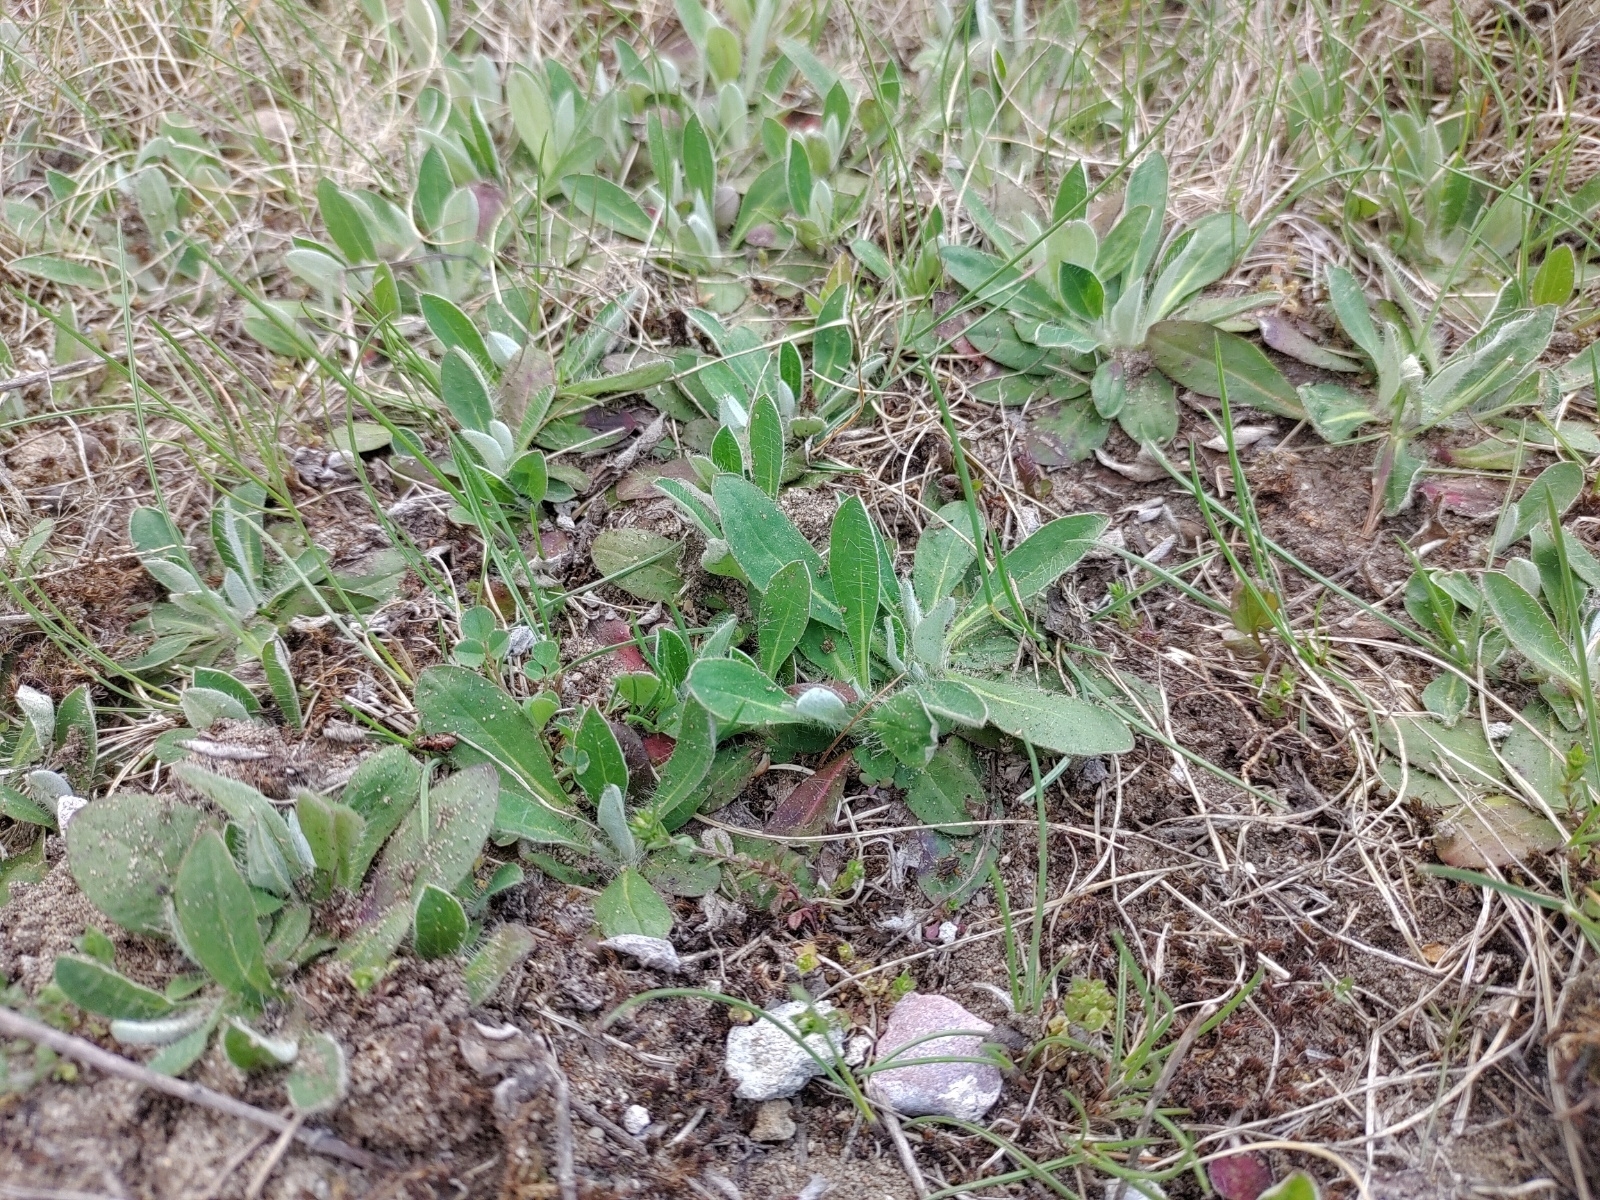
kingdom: Plantae
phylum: Tracheophyta
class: Magnoliopsida
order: Asterales
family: Asteraceae
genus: Pilosella
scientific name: Pilosella officinarum
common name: Mouse-ear hawkweed
